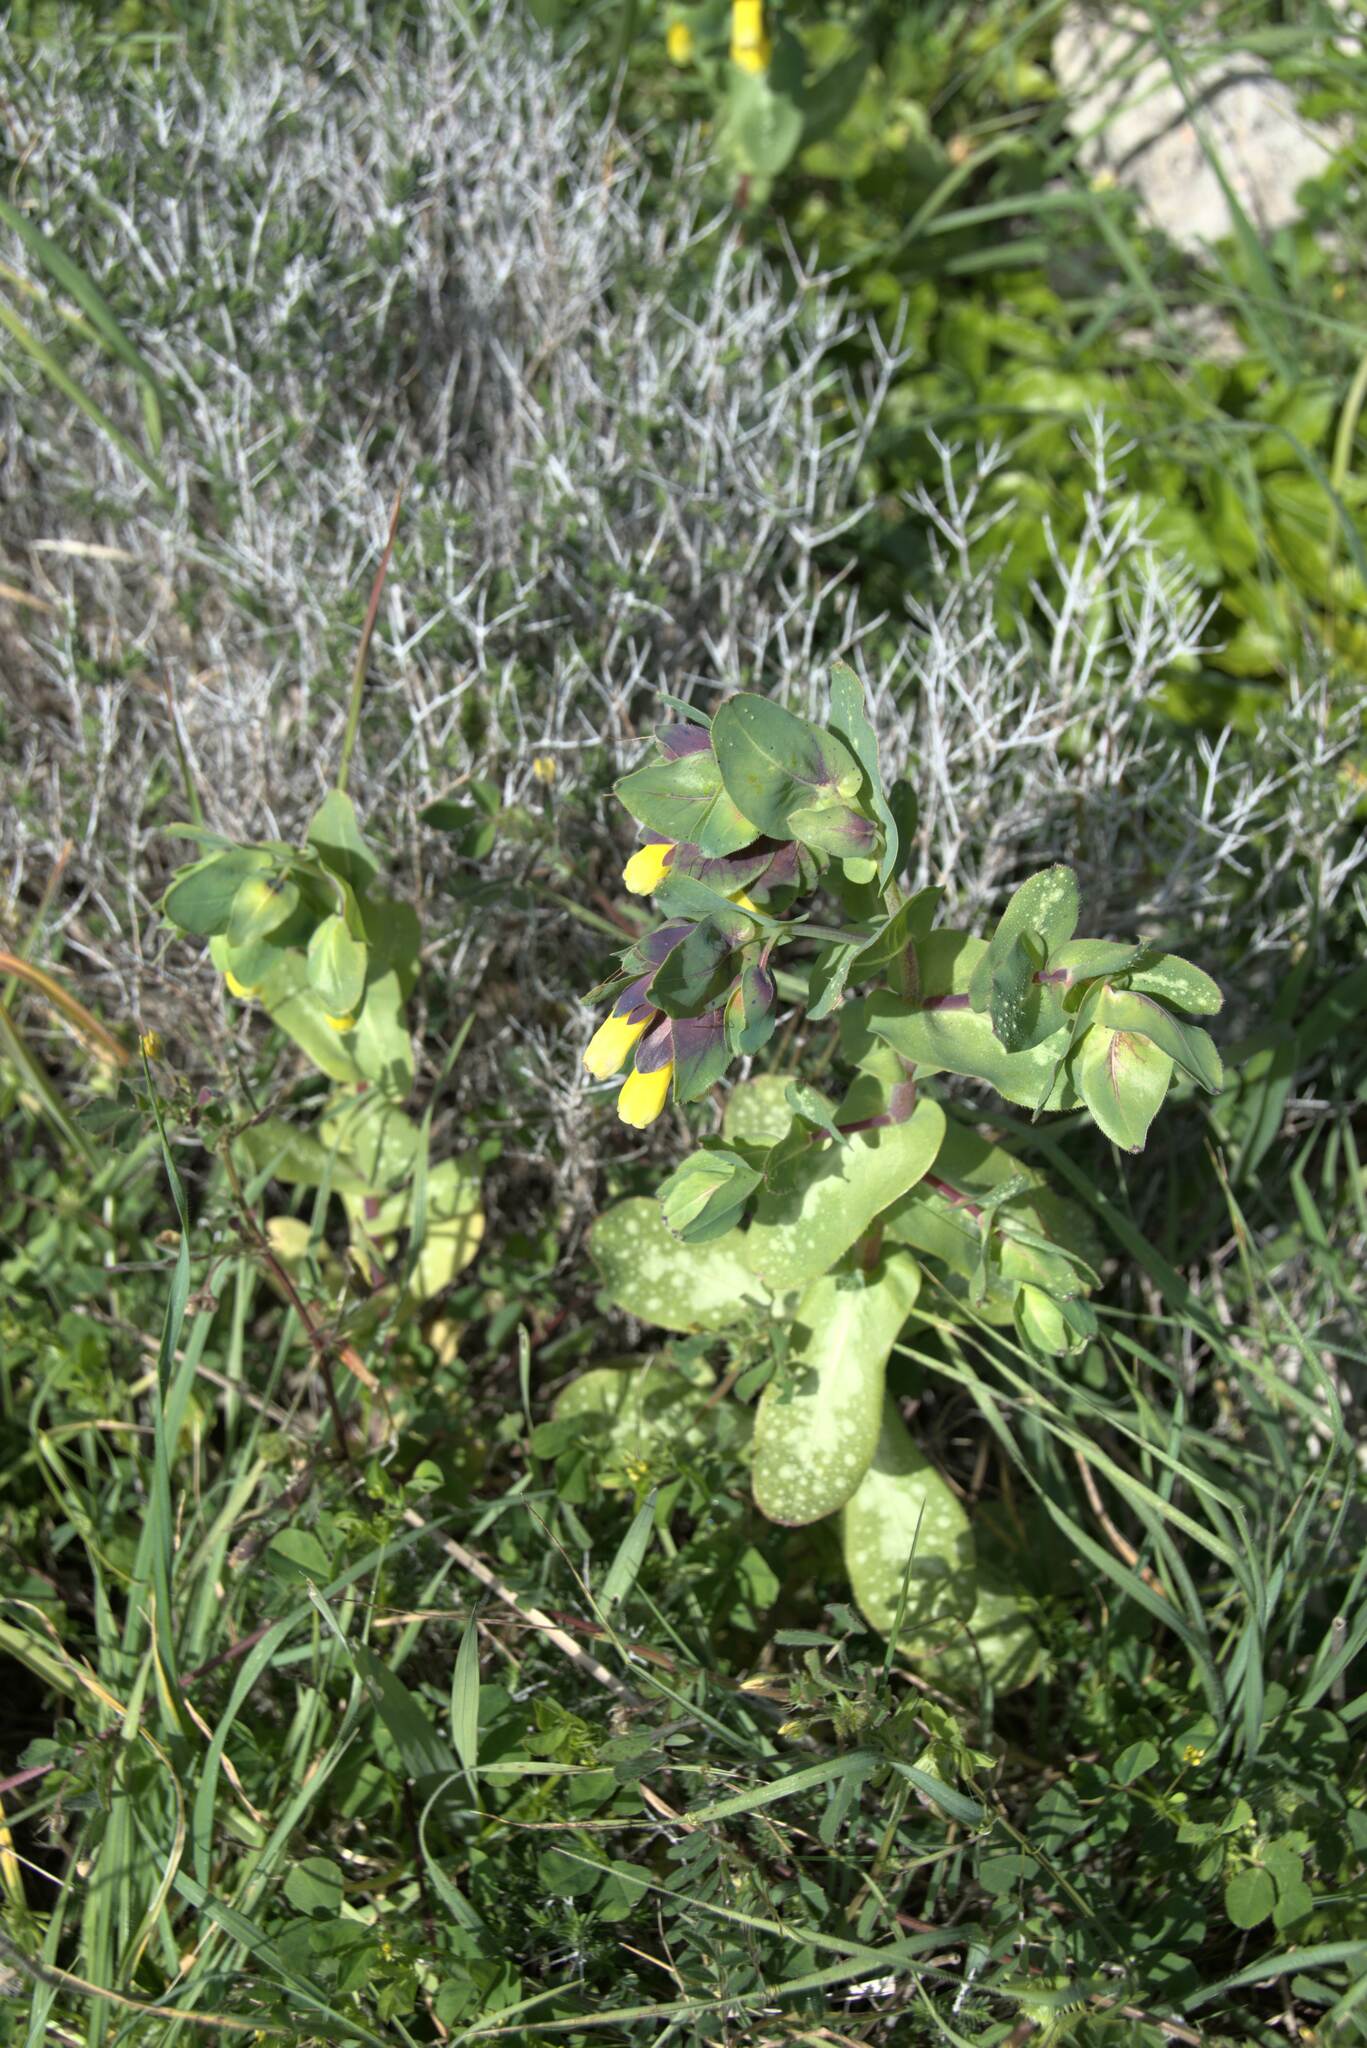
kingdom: Plantae
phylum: Tracheophyta
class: Magnoliopsida
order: Boraginales
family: Boraginaceae
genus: Cerinthe
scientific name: Cerinthe major
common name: Greater honeywort
